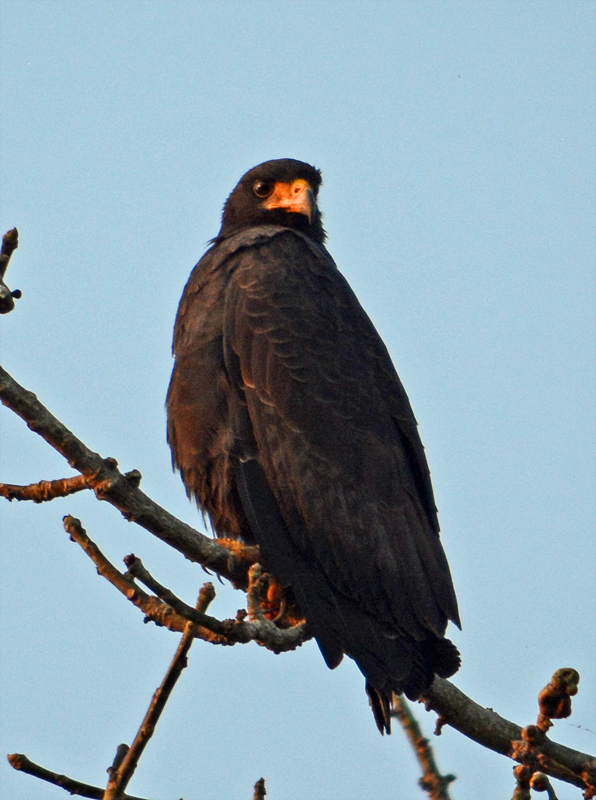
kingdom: Animalia
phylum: Chordata
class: Aves
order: Accipitriformes
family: Accipitridae
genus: Buteogallus
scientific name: Buteogallus anthracinus
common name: Common black hawk
